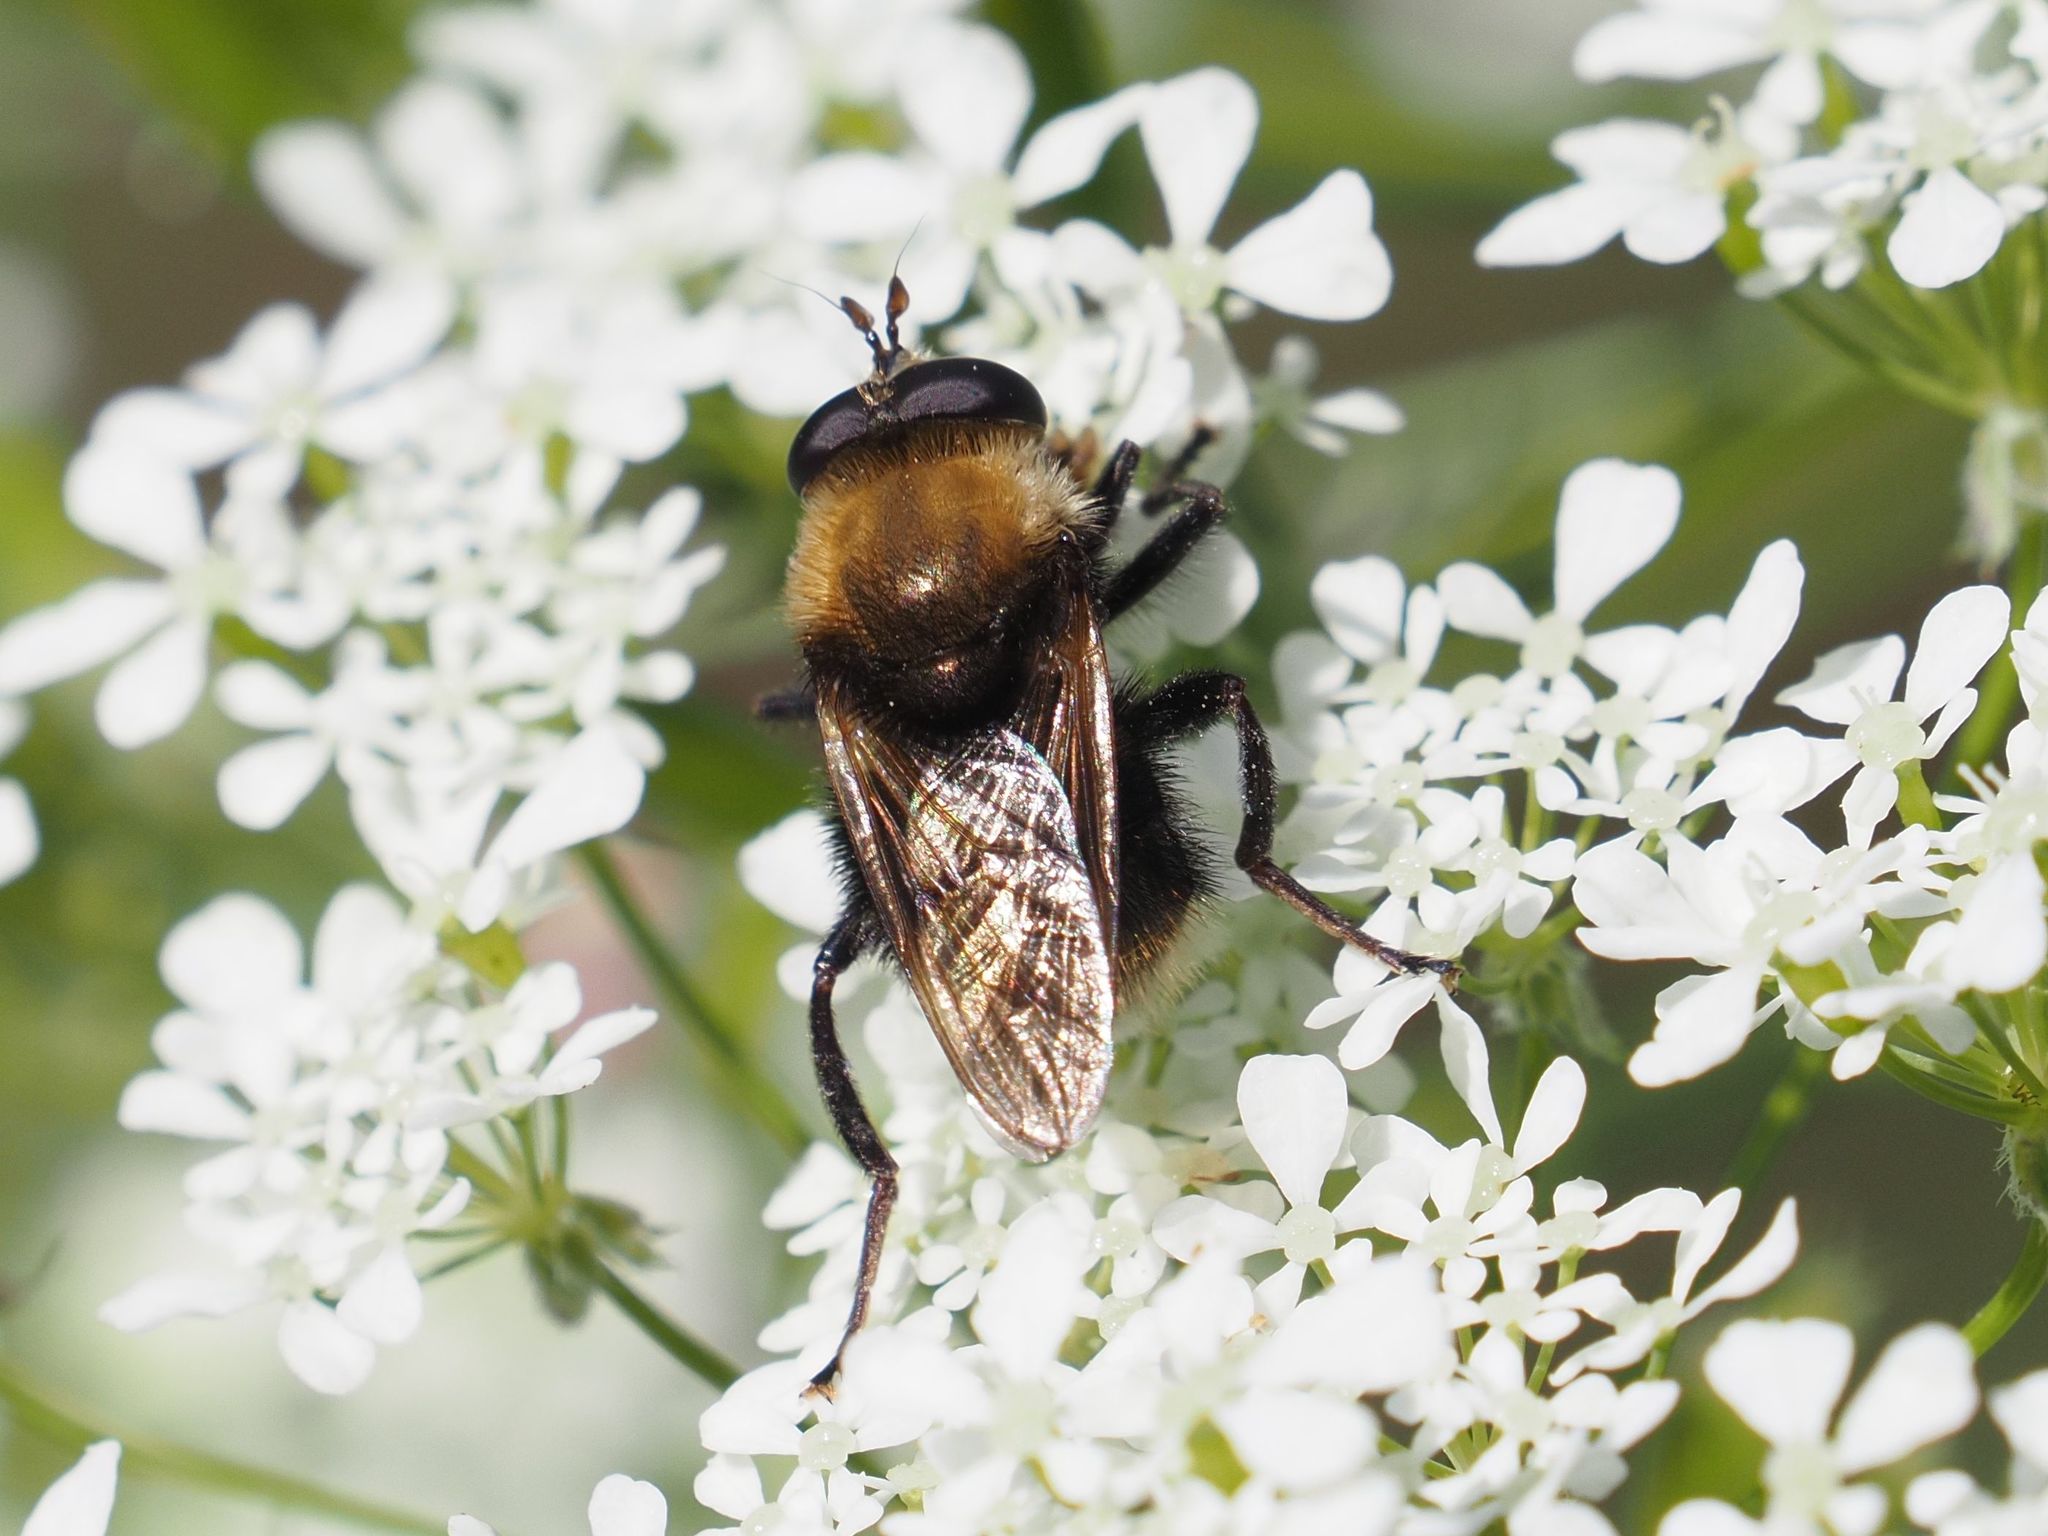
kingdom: Animalia
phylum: Arthropoda
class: Insecta
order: Diptera
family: Syrphidae
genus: Criorhina
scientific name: Criorhina berberina
